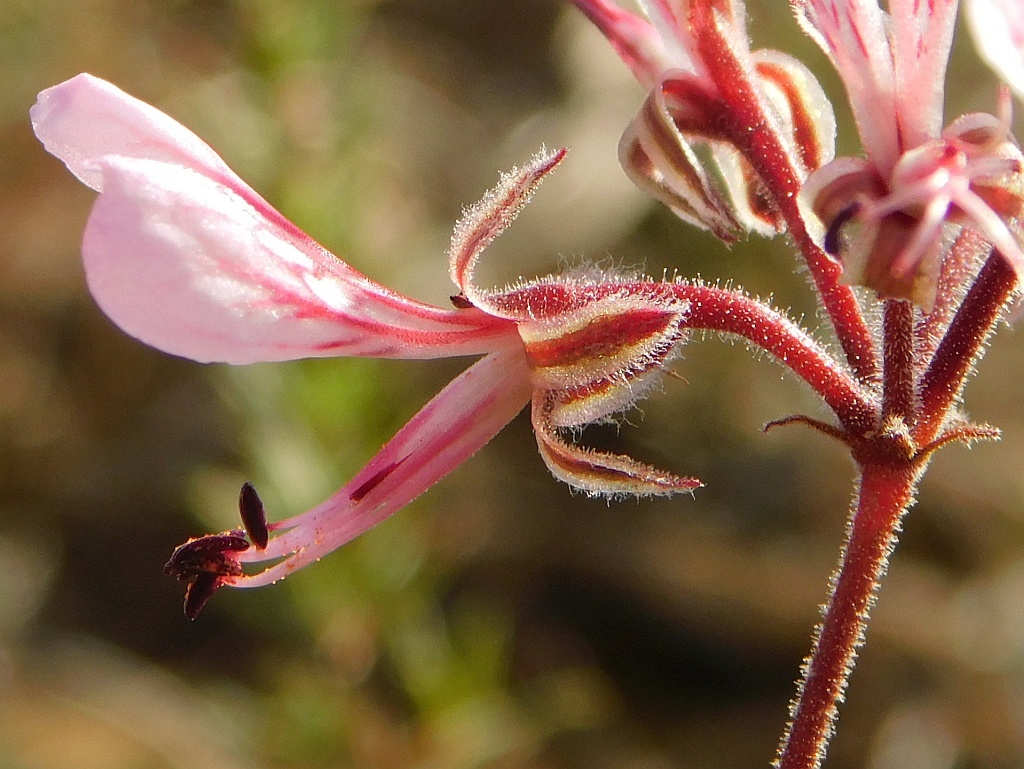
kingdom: Plantae
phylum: Tracheophyta
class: Magnoliopsida
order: Geraniales
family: Geraniaceae
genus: Pelargonium
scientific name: Pelargonium dipetalum
